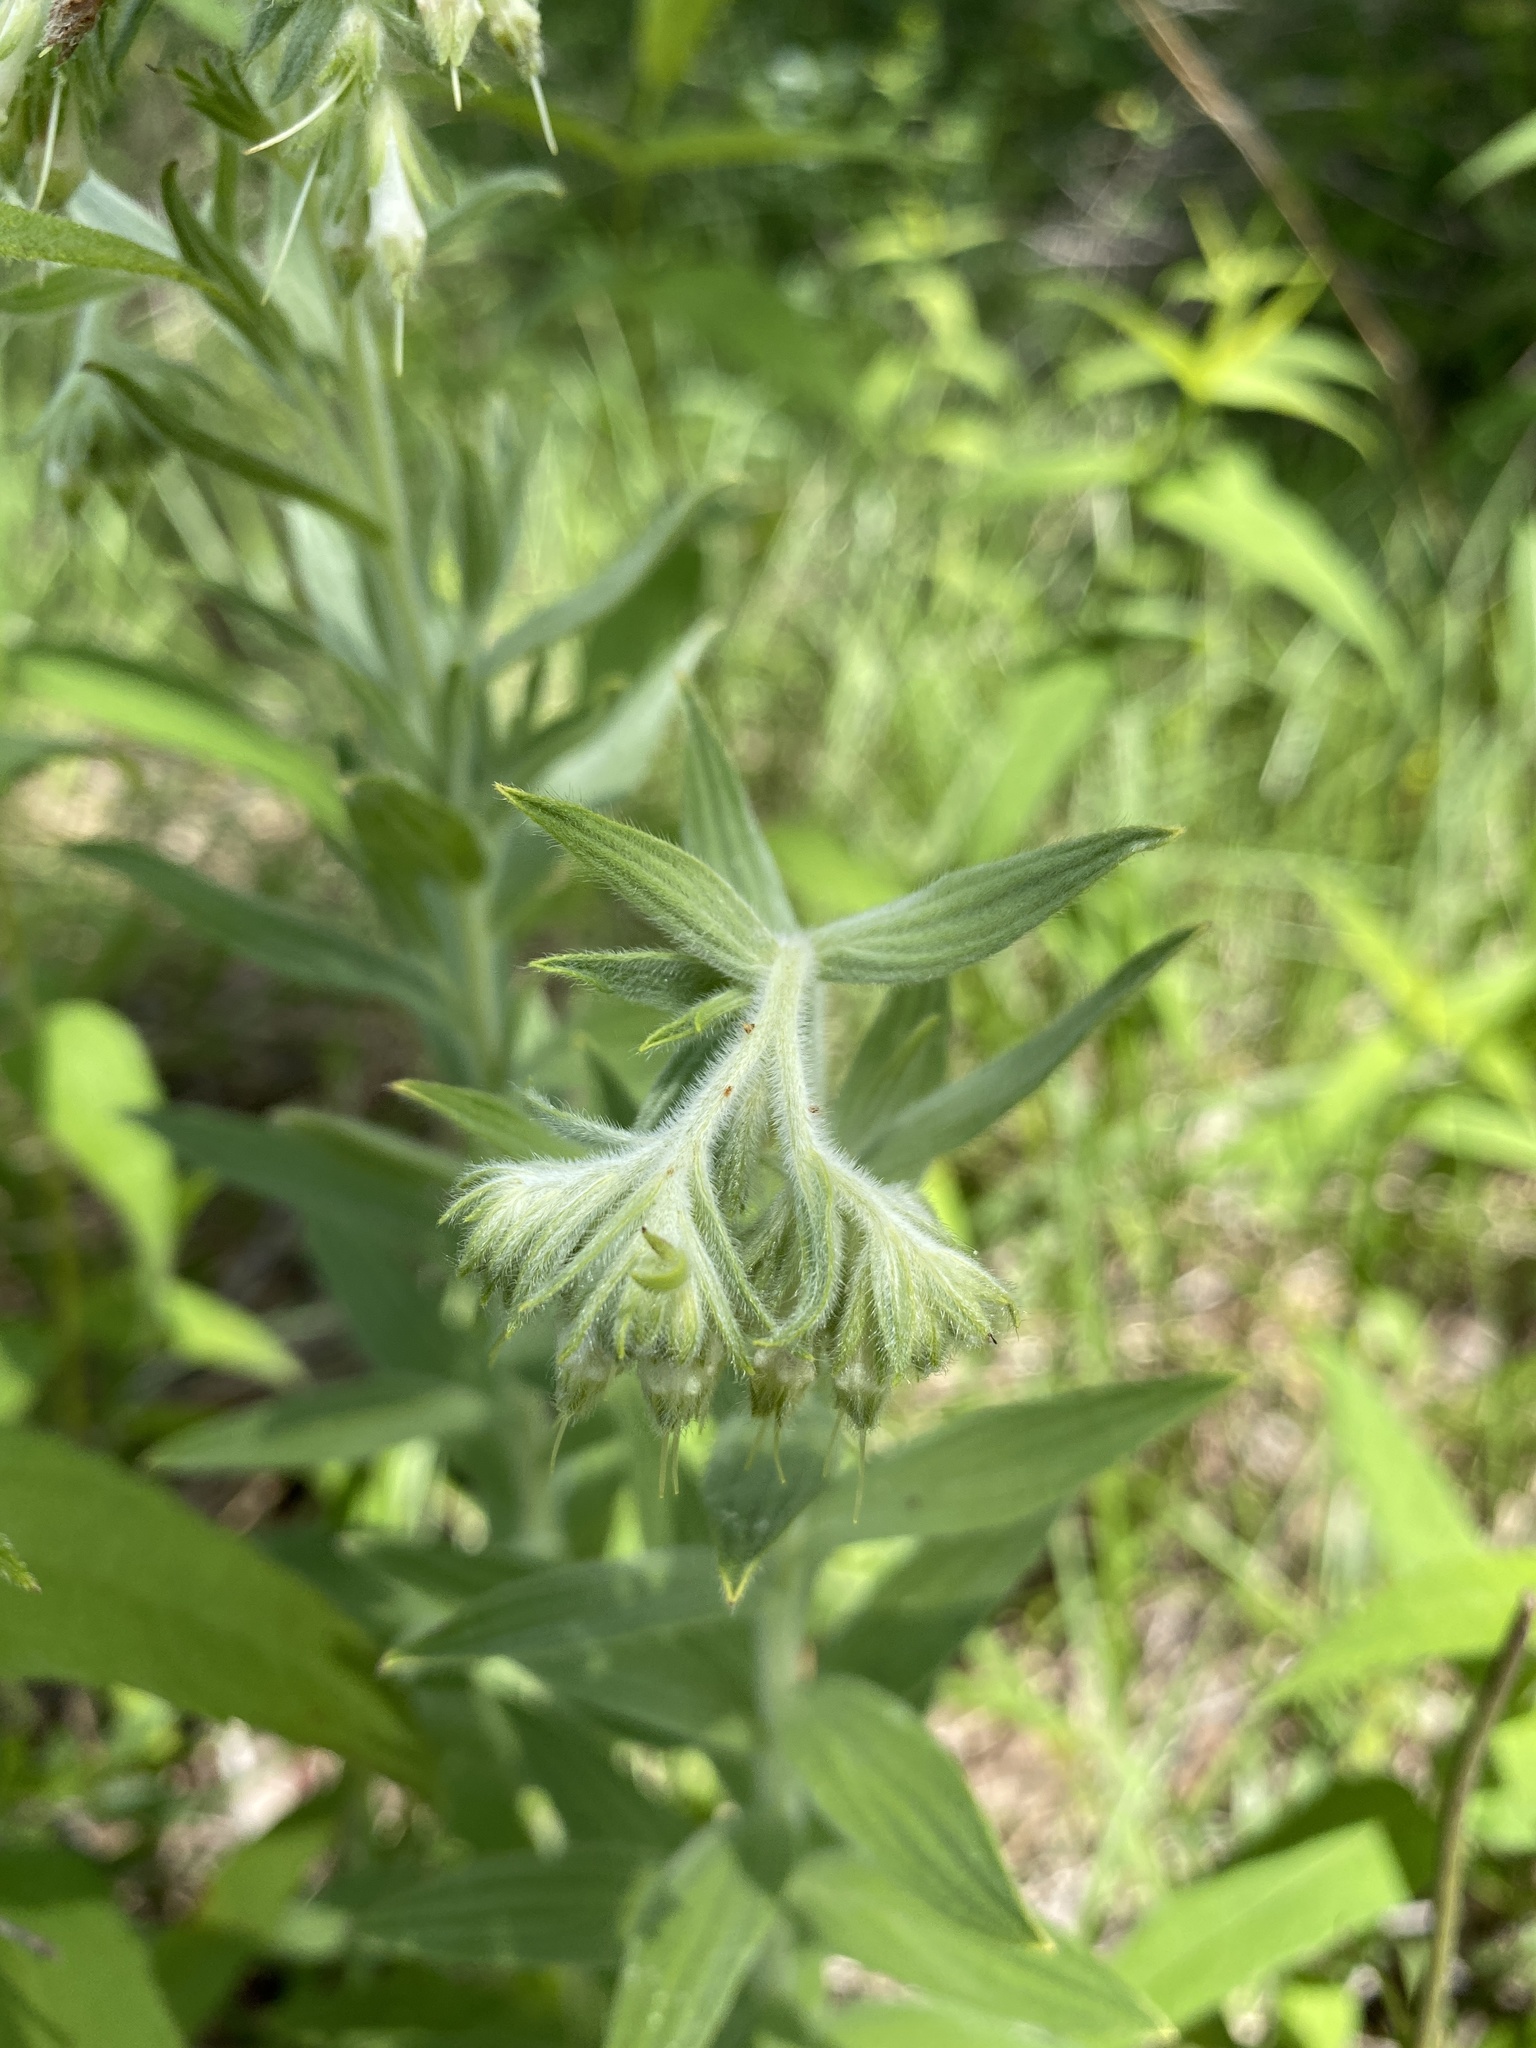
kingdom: Plantae
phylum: Tracheophyta
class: Magnoliopsida
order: Boraginales
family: Boraginaceae
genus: Lithospermum
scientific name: Lithospermum molle
